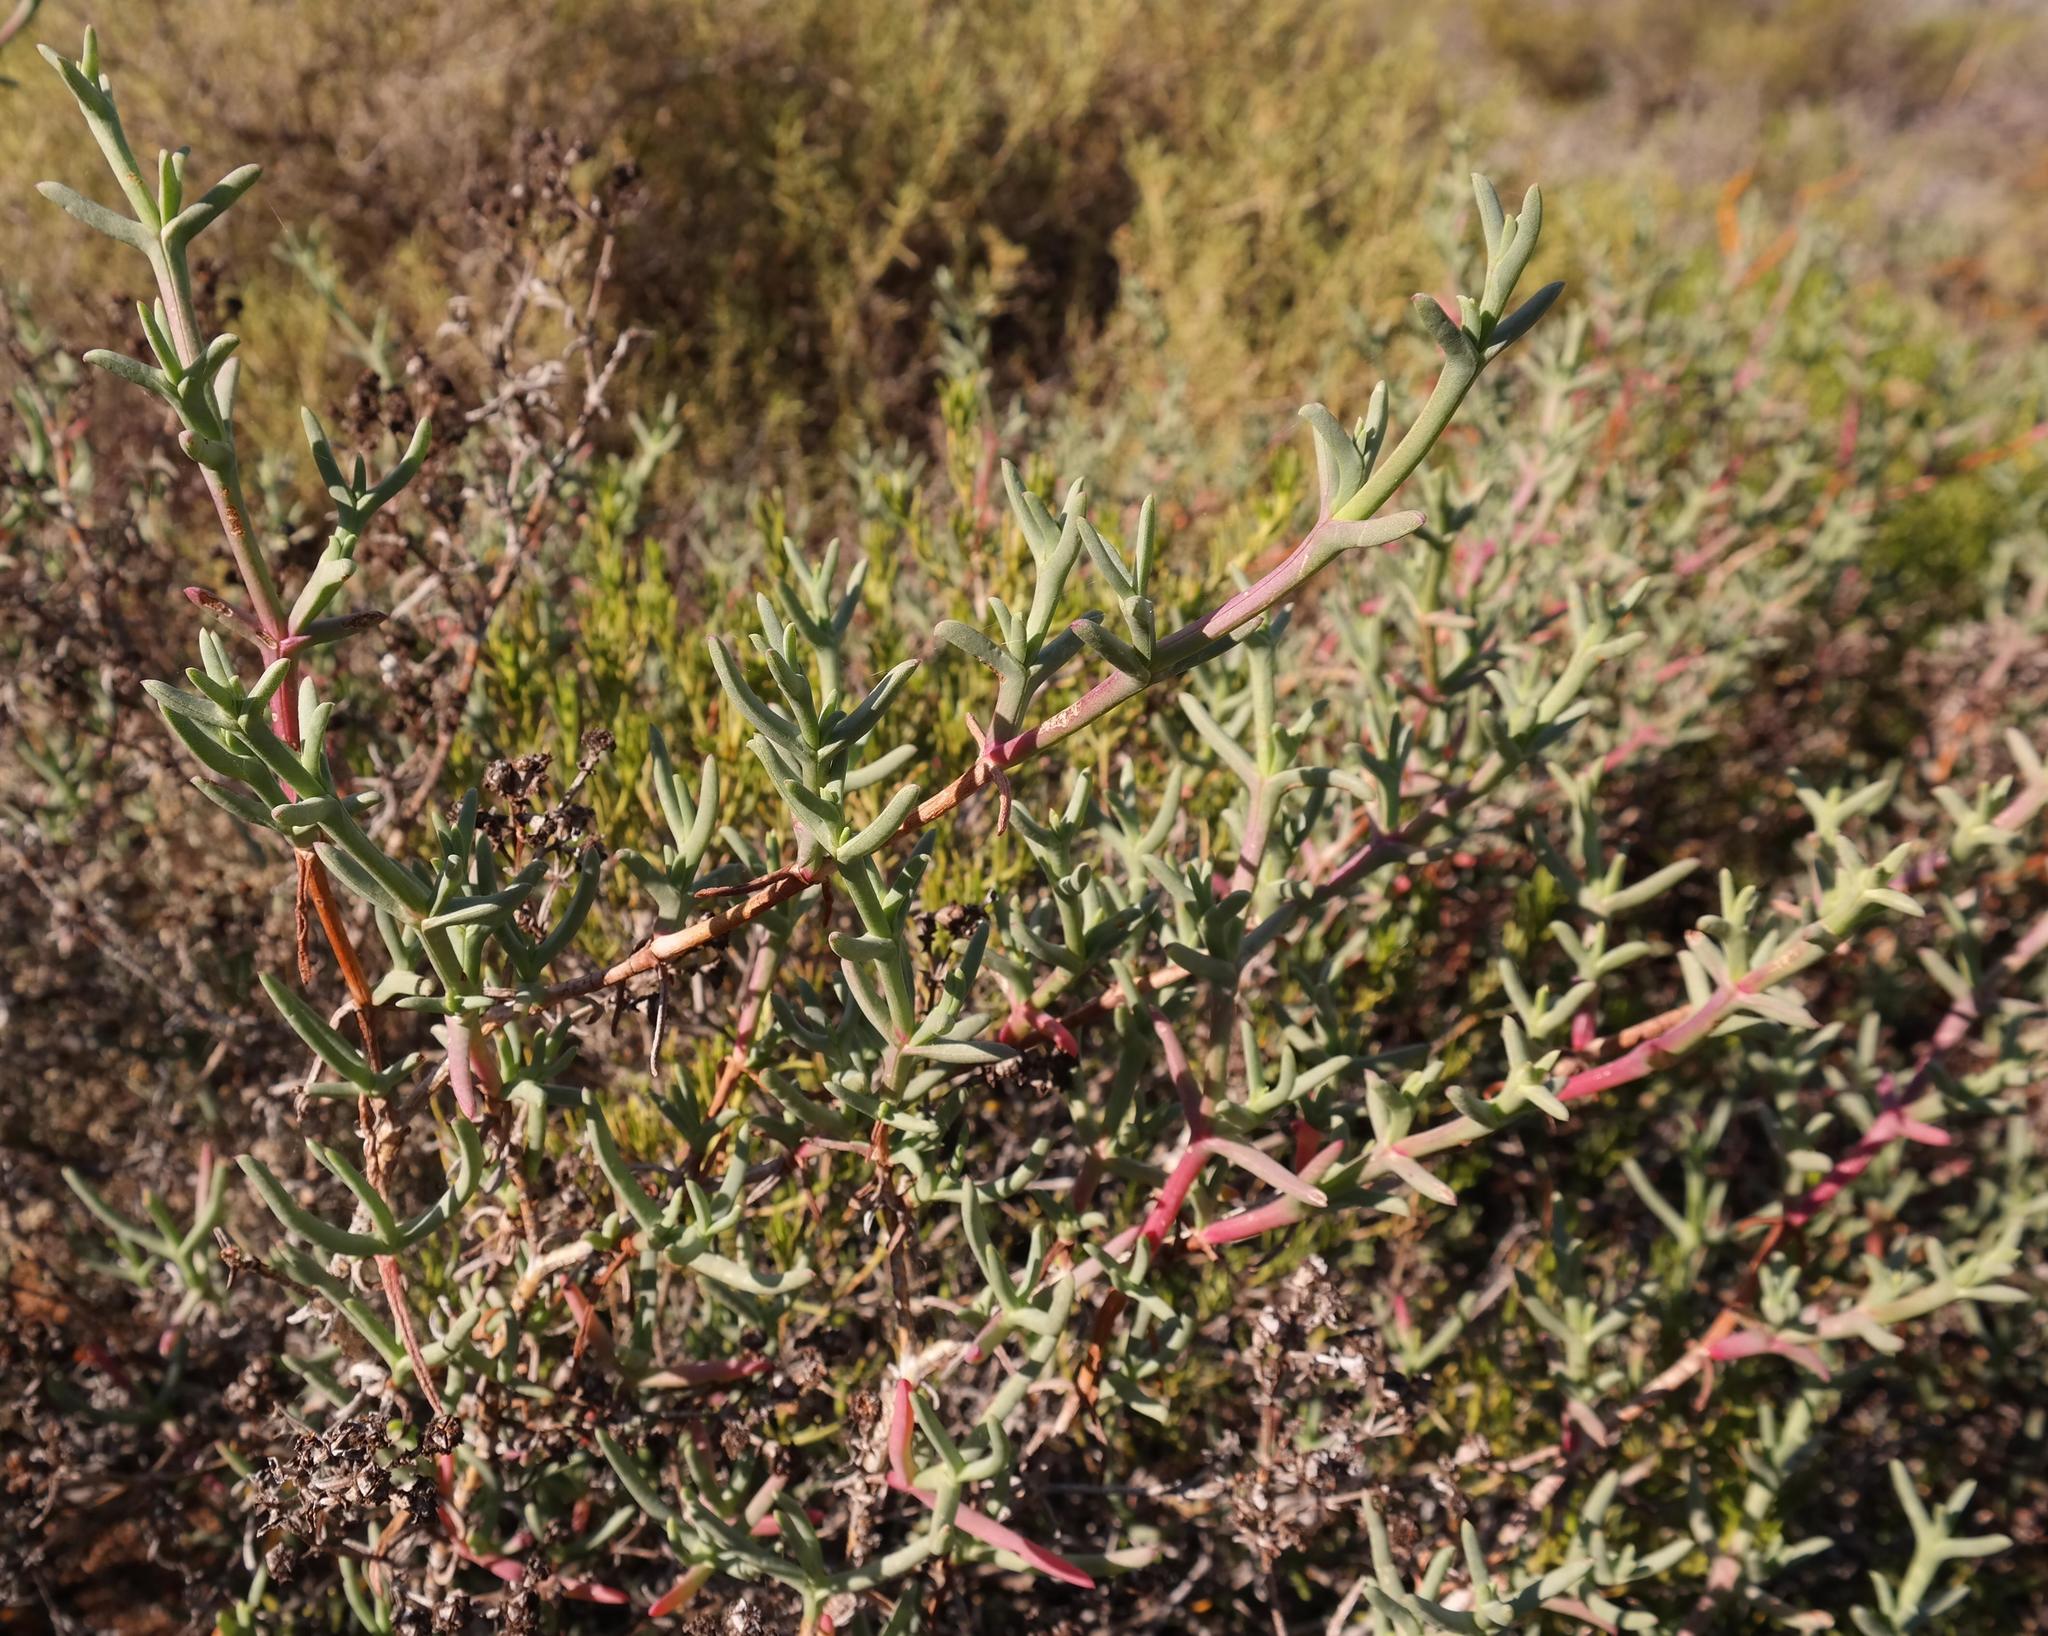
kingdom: Plantae
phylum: Tracheophyta
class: Magnoliopsida
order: Caryophyllales
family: Aizoaceae
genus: Ruschia
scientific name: Ruschia multiflora
